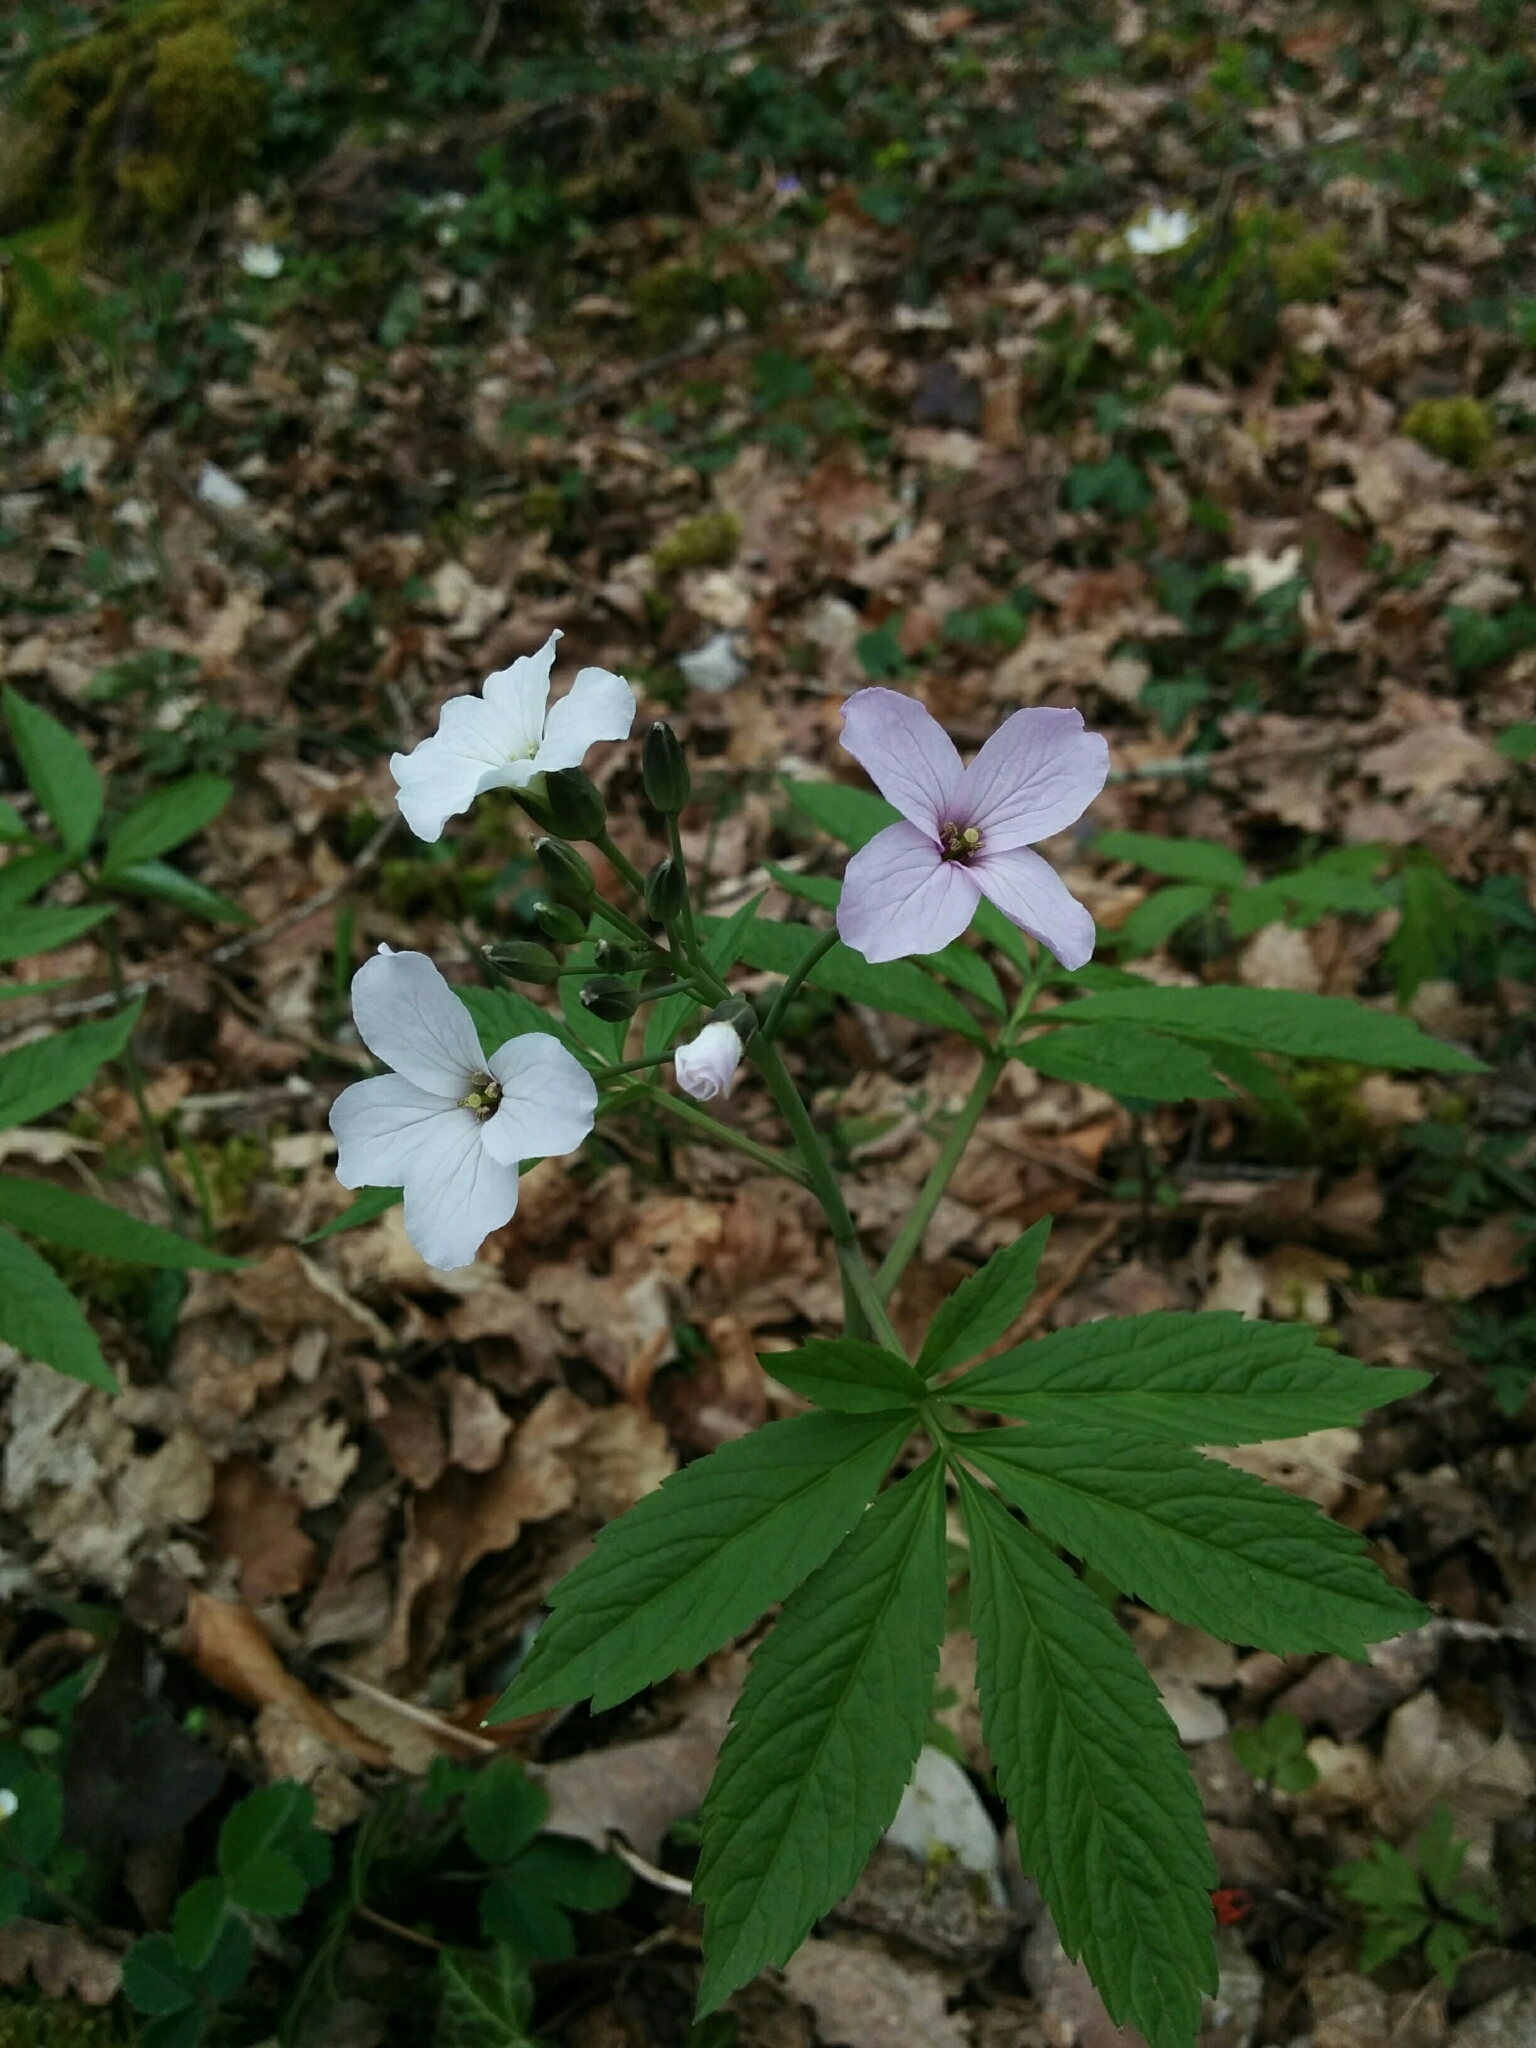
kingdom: Plantae
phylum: Tracheophyta
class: Magnoliopsida
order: Brassicales
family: Brassicaceae
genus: Cardamine
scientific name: Cardamine heptaphylla
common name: Pinnate coralroot
